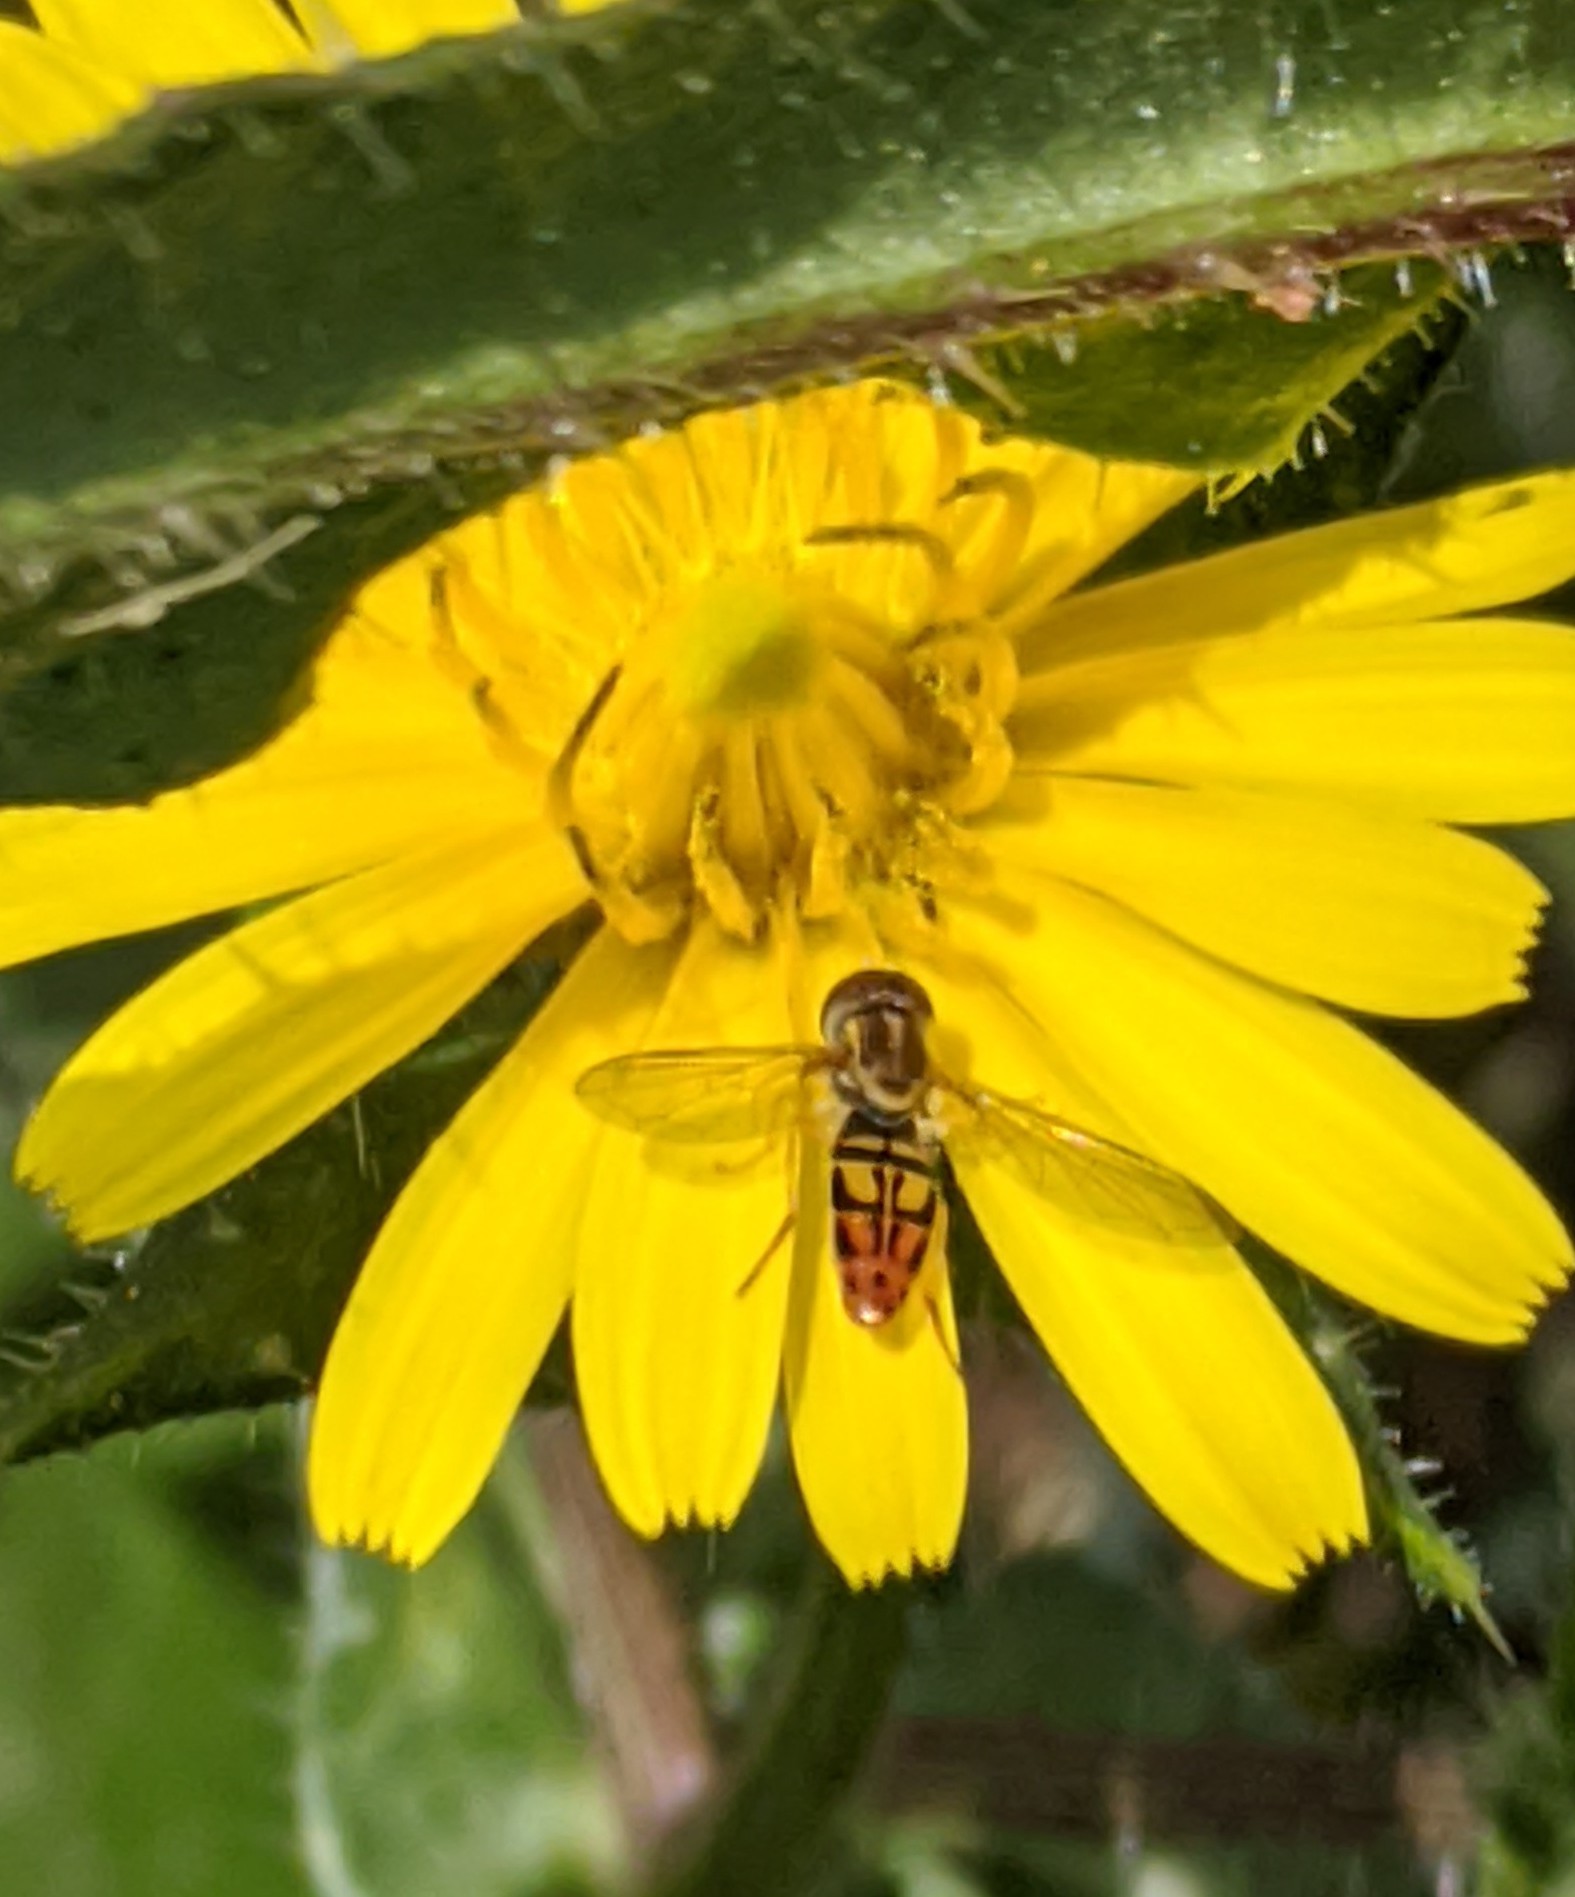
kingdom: Animalia
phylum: Arthropoda
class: Insecta
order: Diptera
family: Syrphidae
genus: Toxomerus
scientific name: Toxomerus marginatus
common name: Syrphid fly
